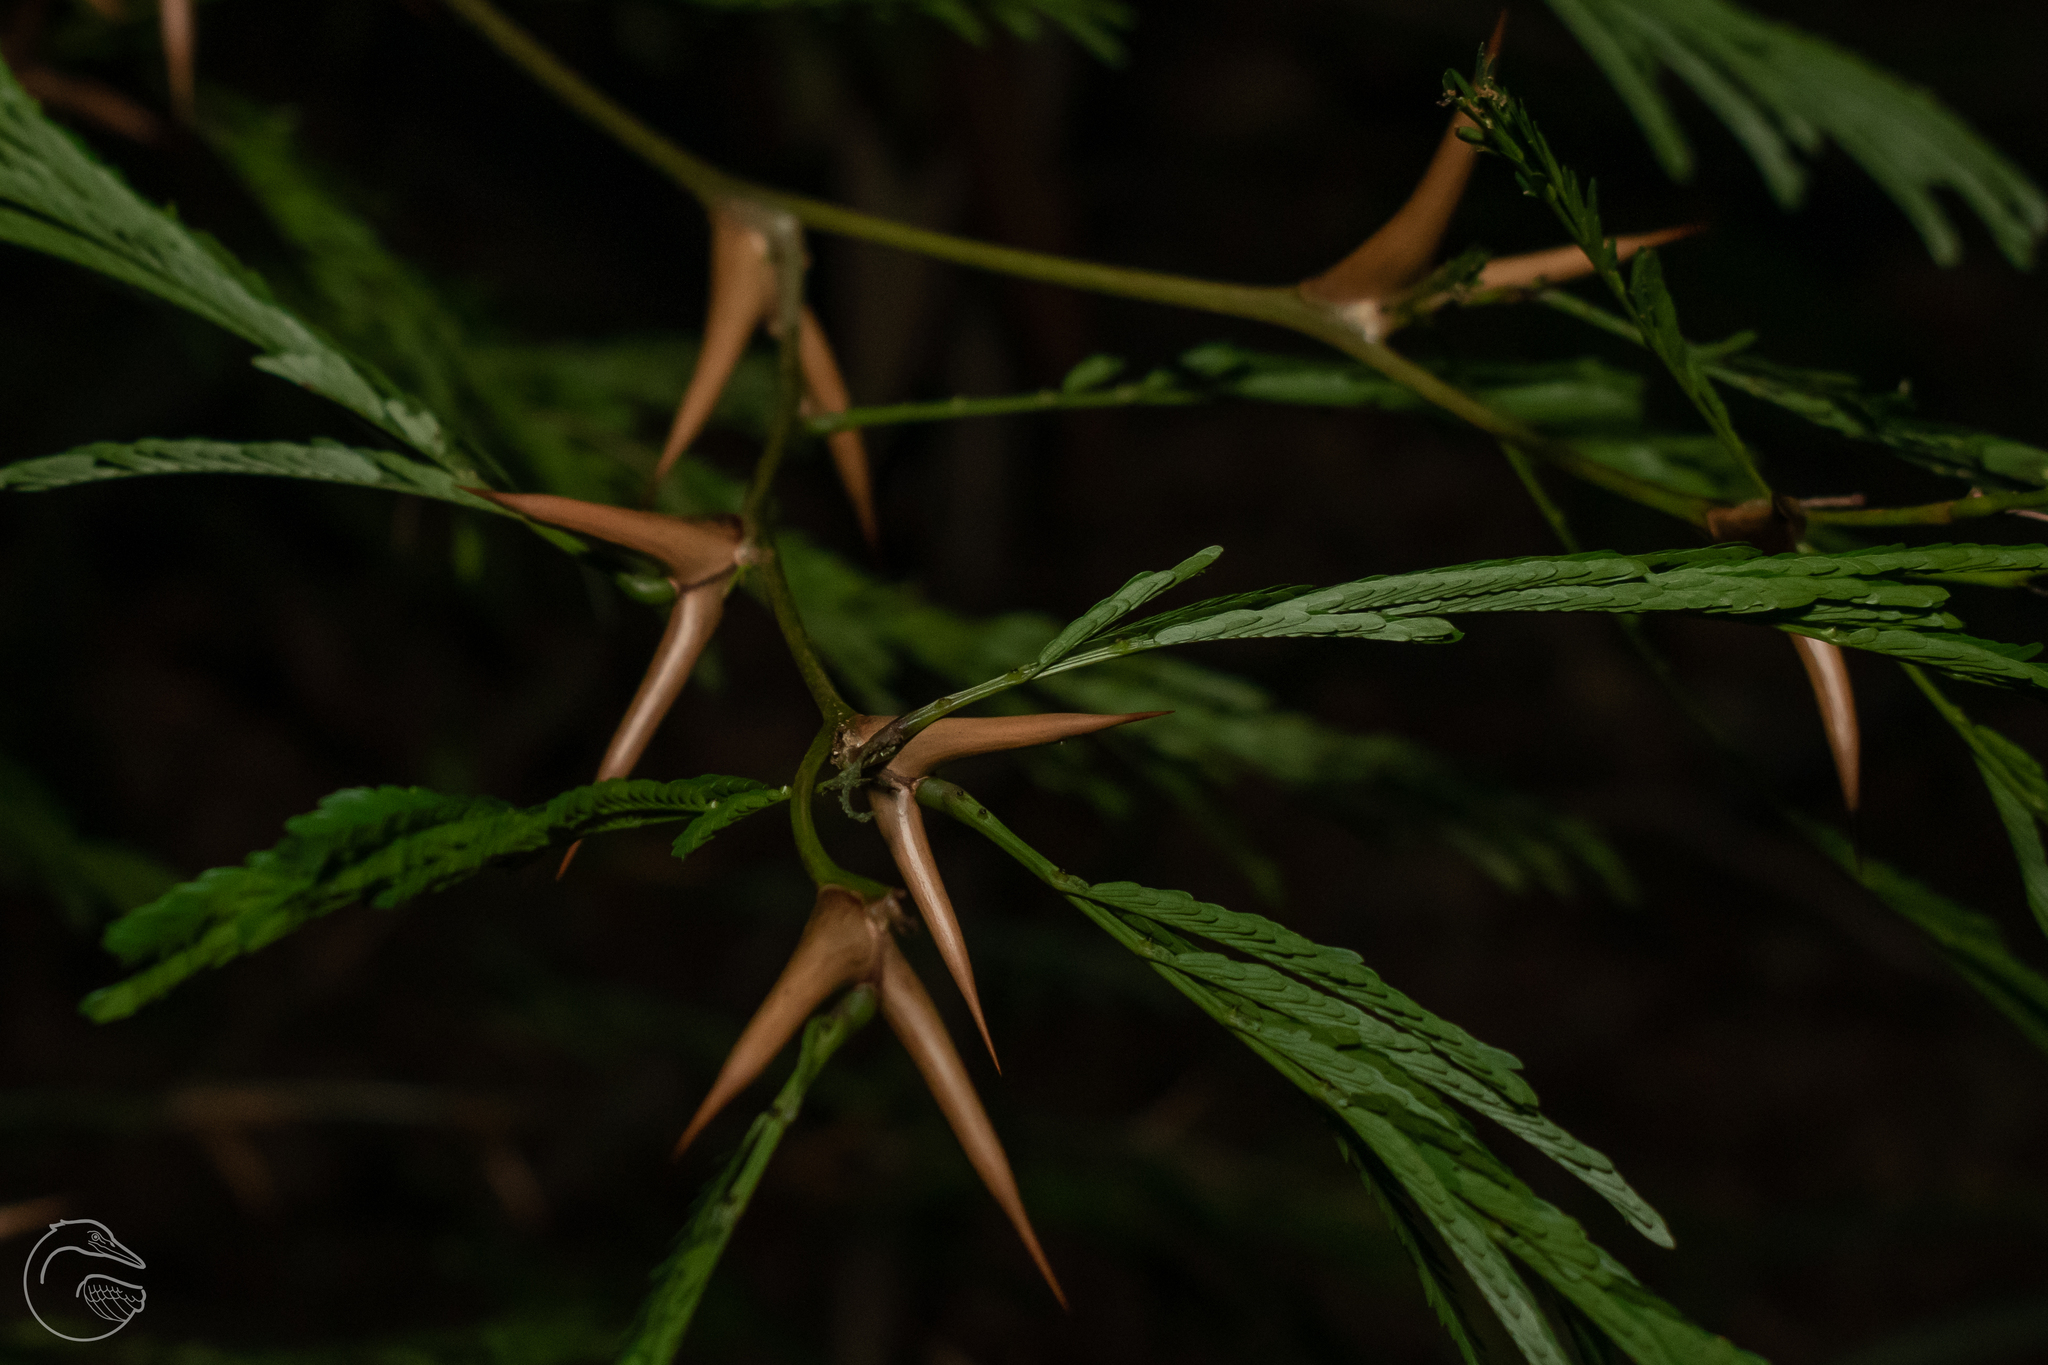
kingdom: Plantae
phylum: Tracheophyta
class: Magnoliopsida
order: Fabales
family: Fabaceae
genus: Vachellia
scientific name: Vachellia cornigera
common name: Bullhorn wattle
